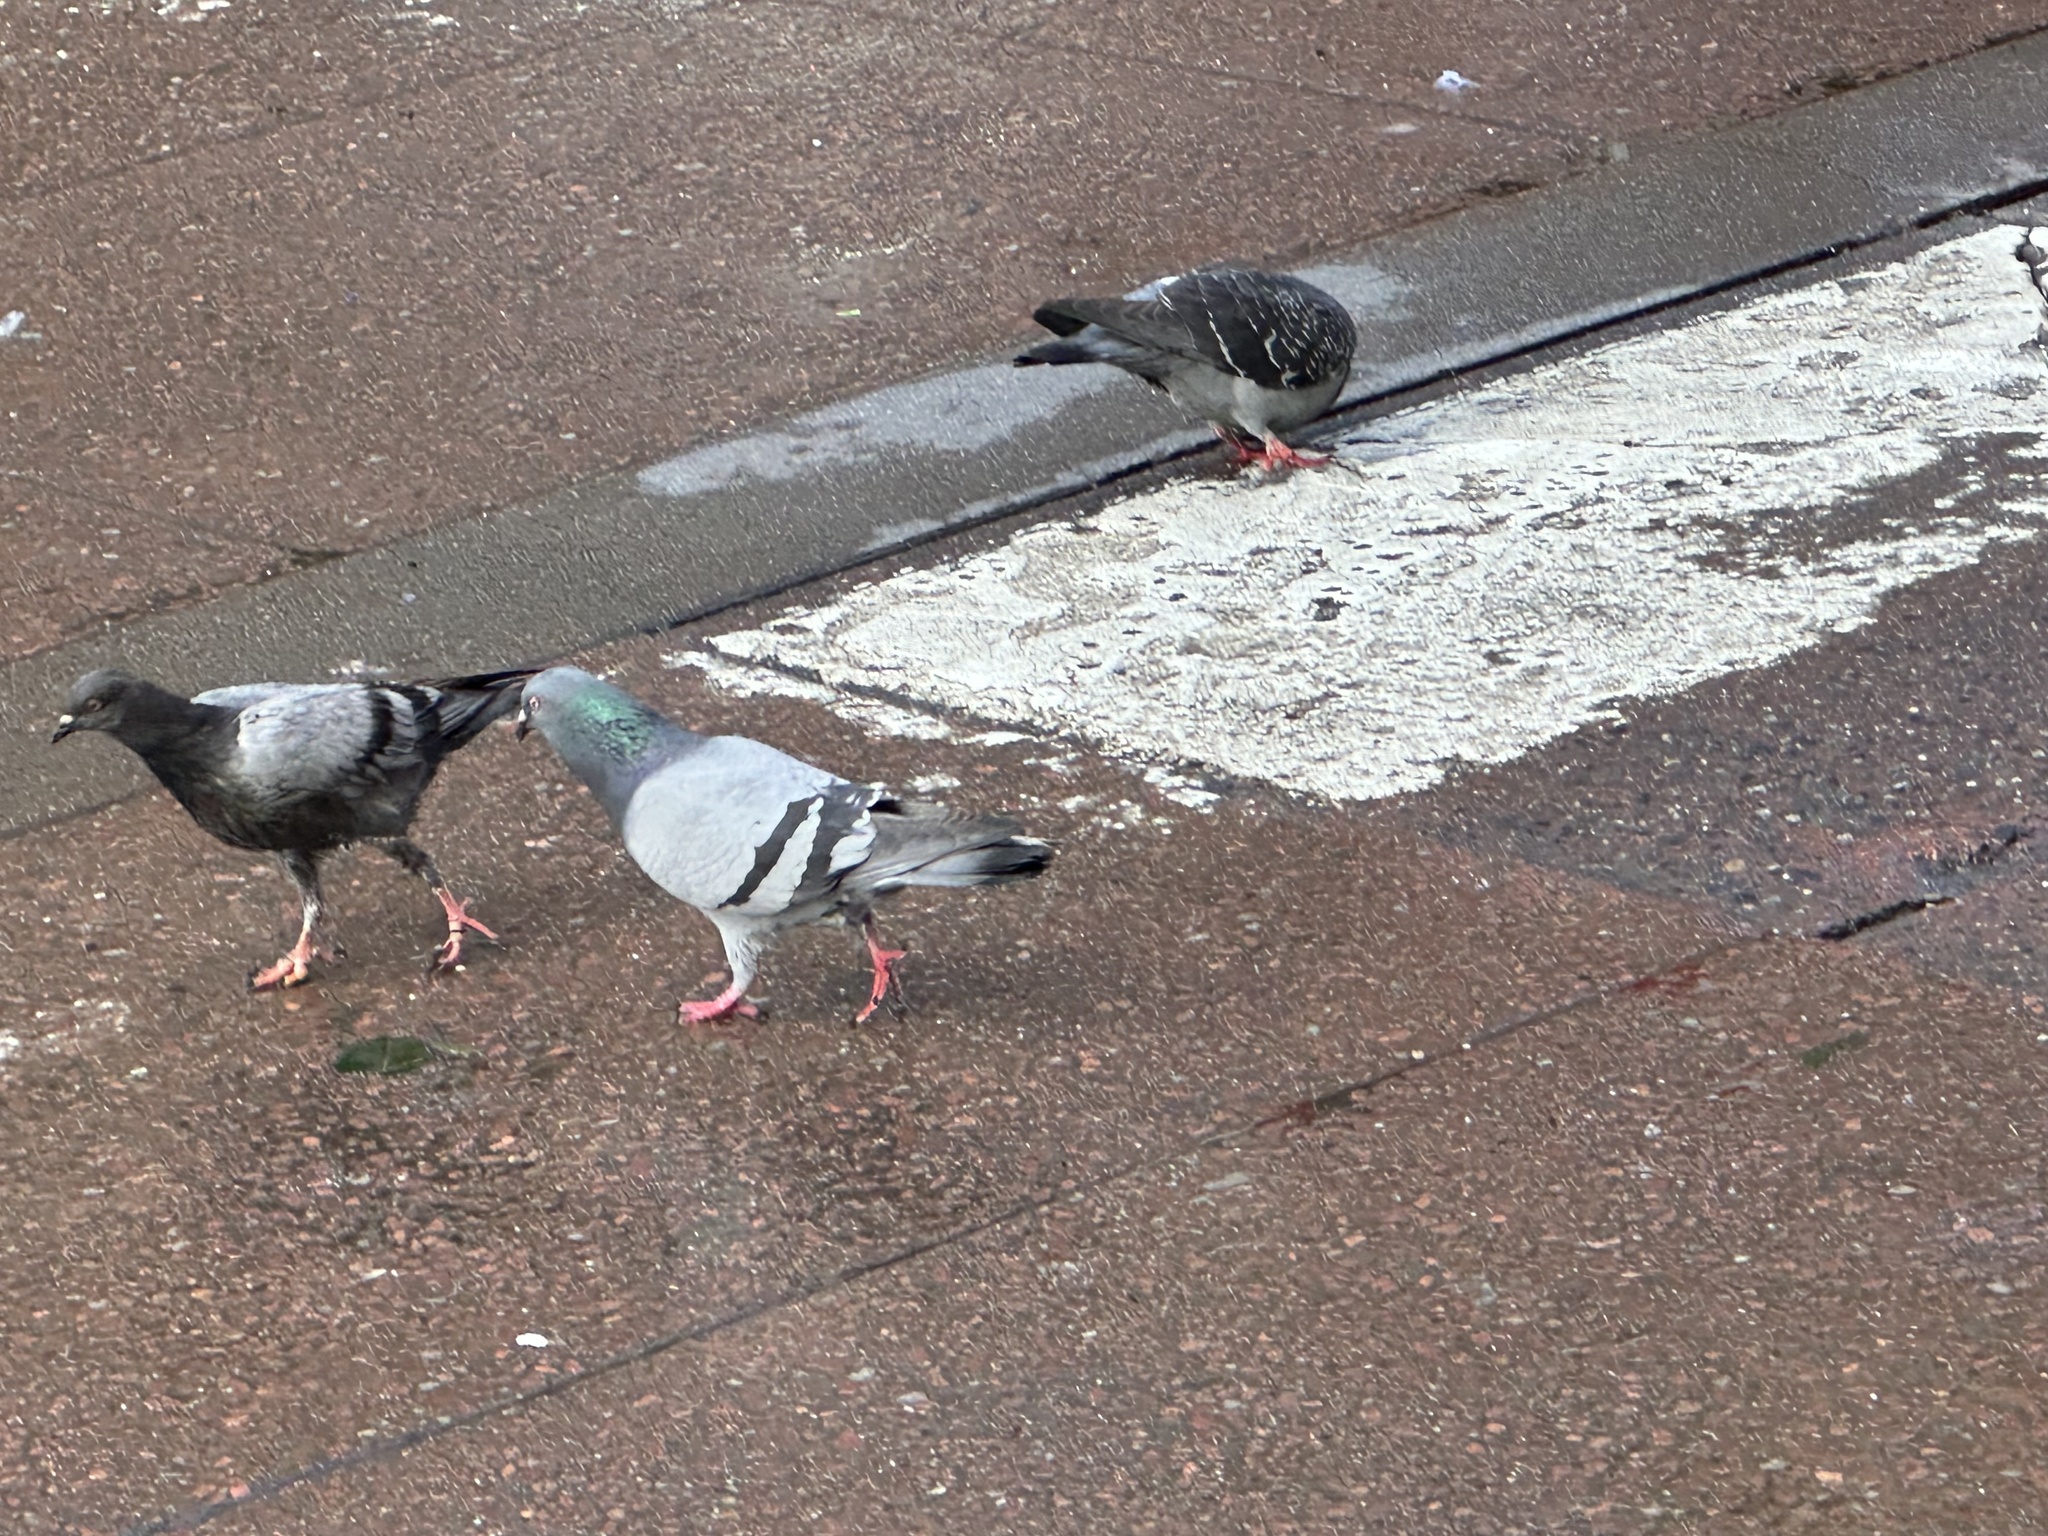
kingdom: Animalia
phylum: Chordata
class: Aves
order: Columbiformes
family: Columbidae
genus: Columba
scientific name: Columba livia
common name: Rock pigeon
